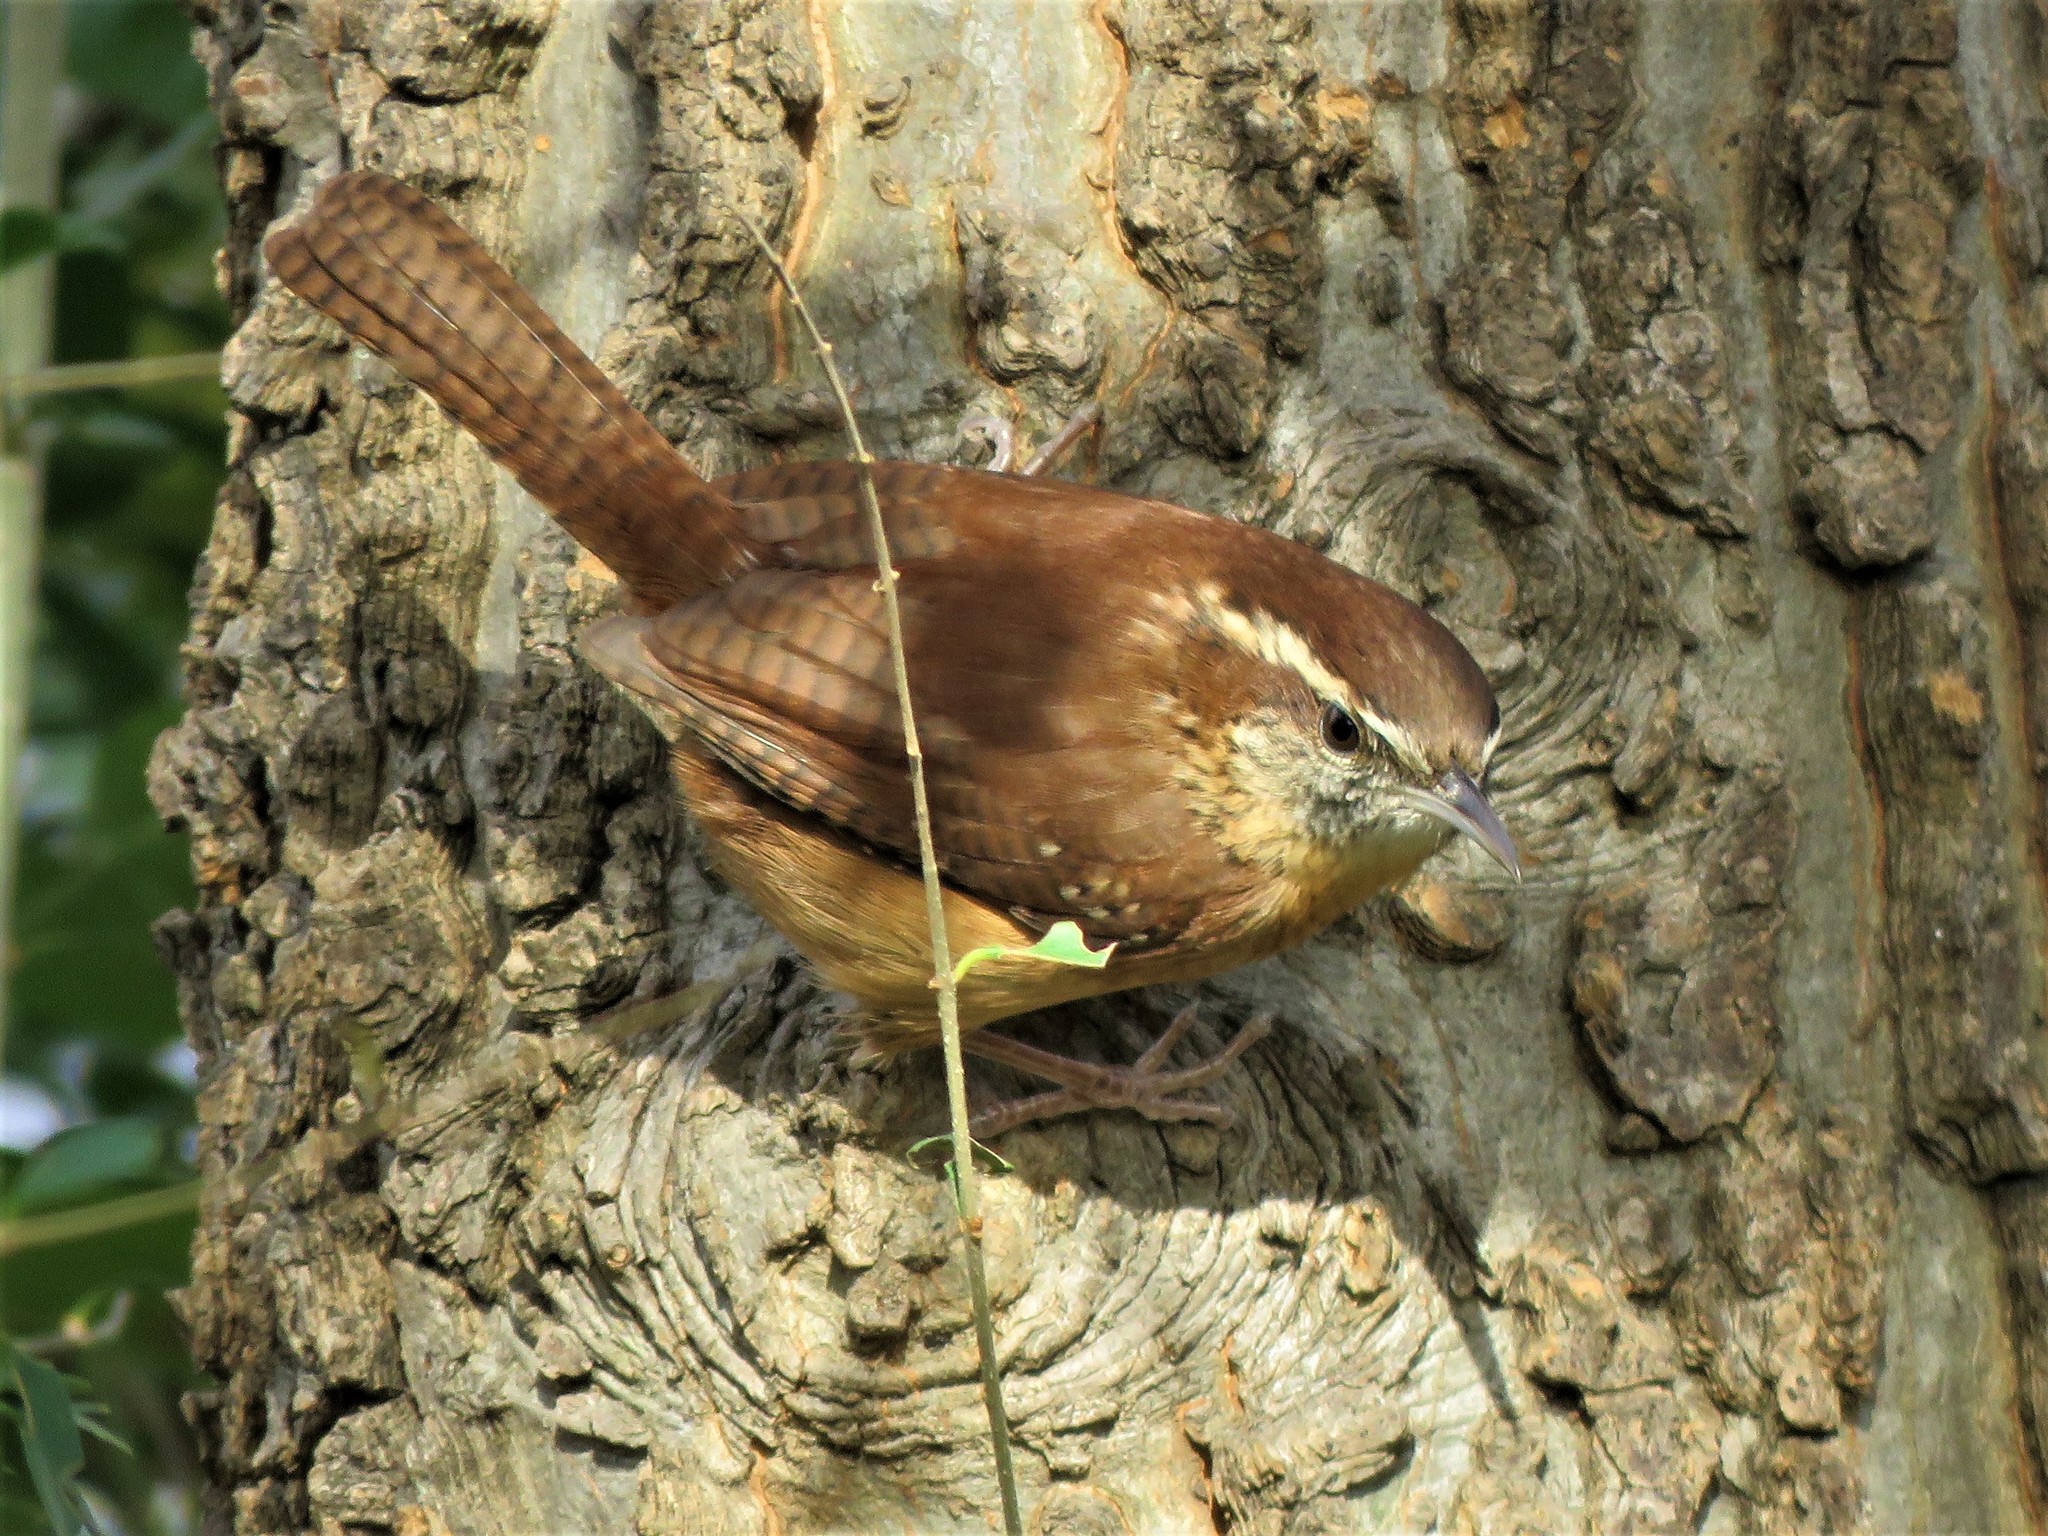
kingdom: Animalia
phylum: Chordata
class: Aves
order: Passeriformes
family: Troglodytidae
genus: Thryothorus
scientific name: Thryothorus ludovicianus
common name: Carolina wren
